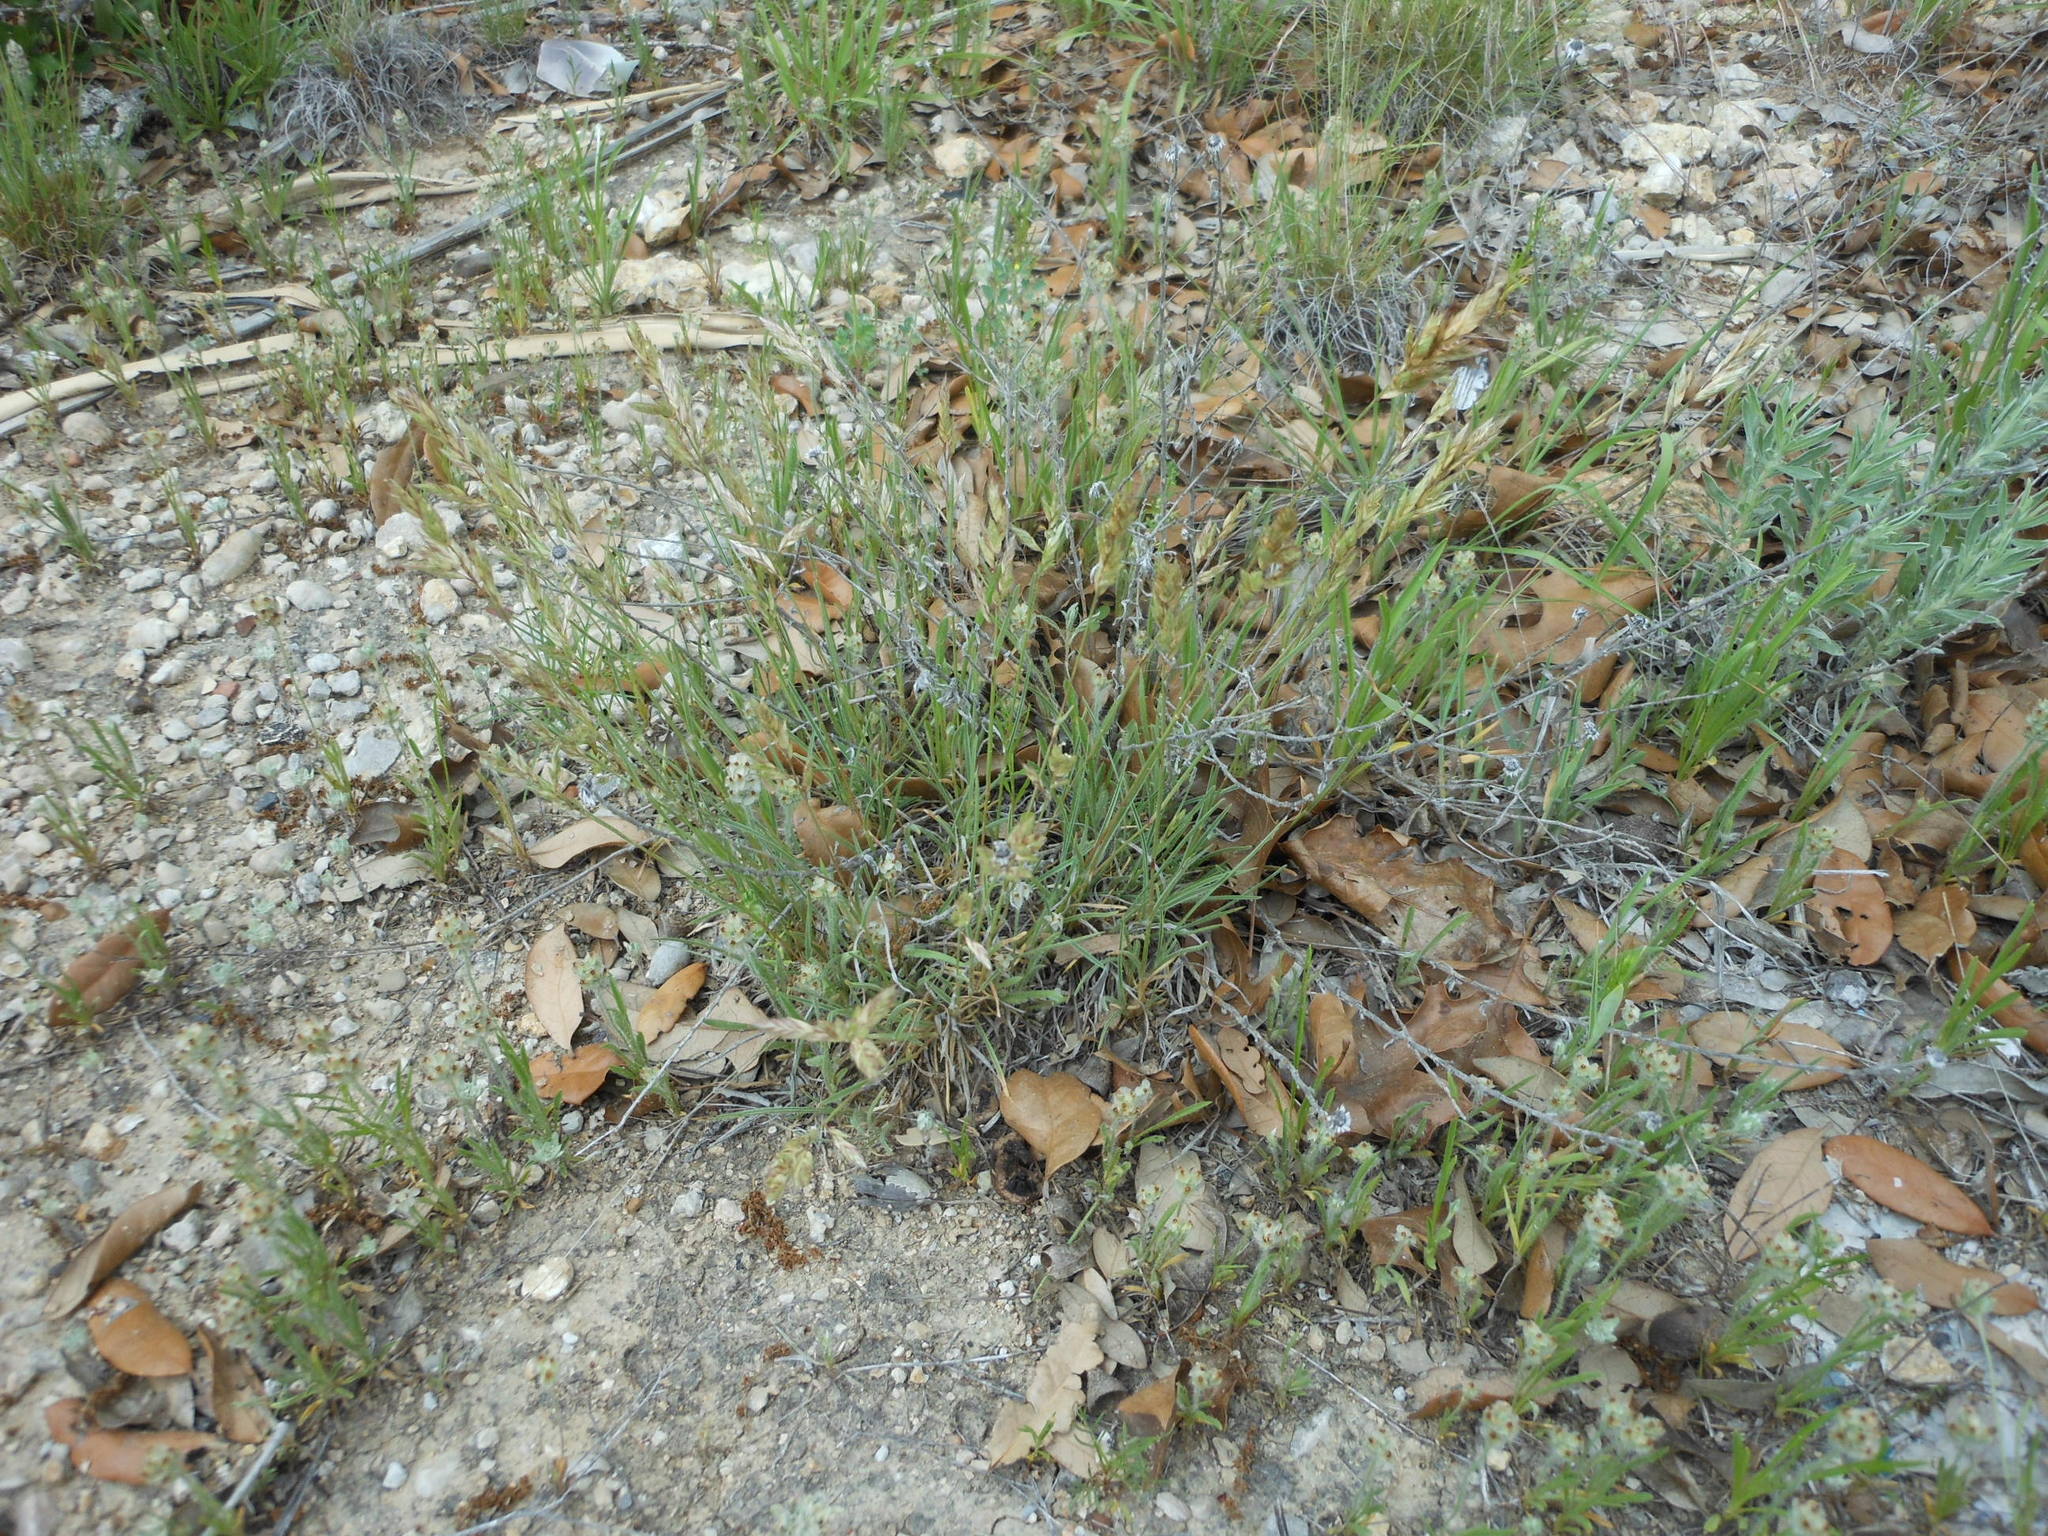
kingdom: Plantae
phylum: Tracheophyta
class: Liliopsida
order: Poales
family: Poaceae
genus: Erioneuron
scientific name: Erioneuron pilosum
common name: Hairy woolly grass
